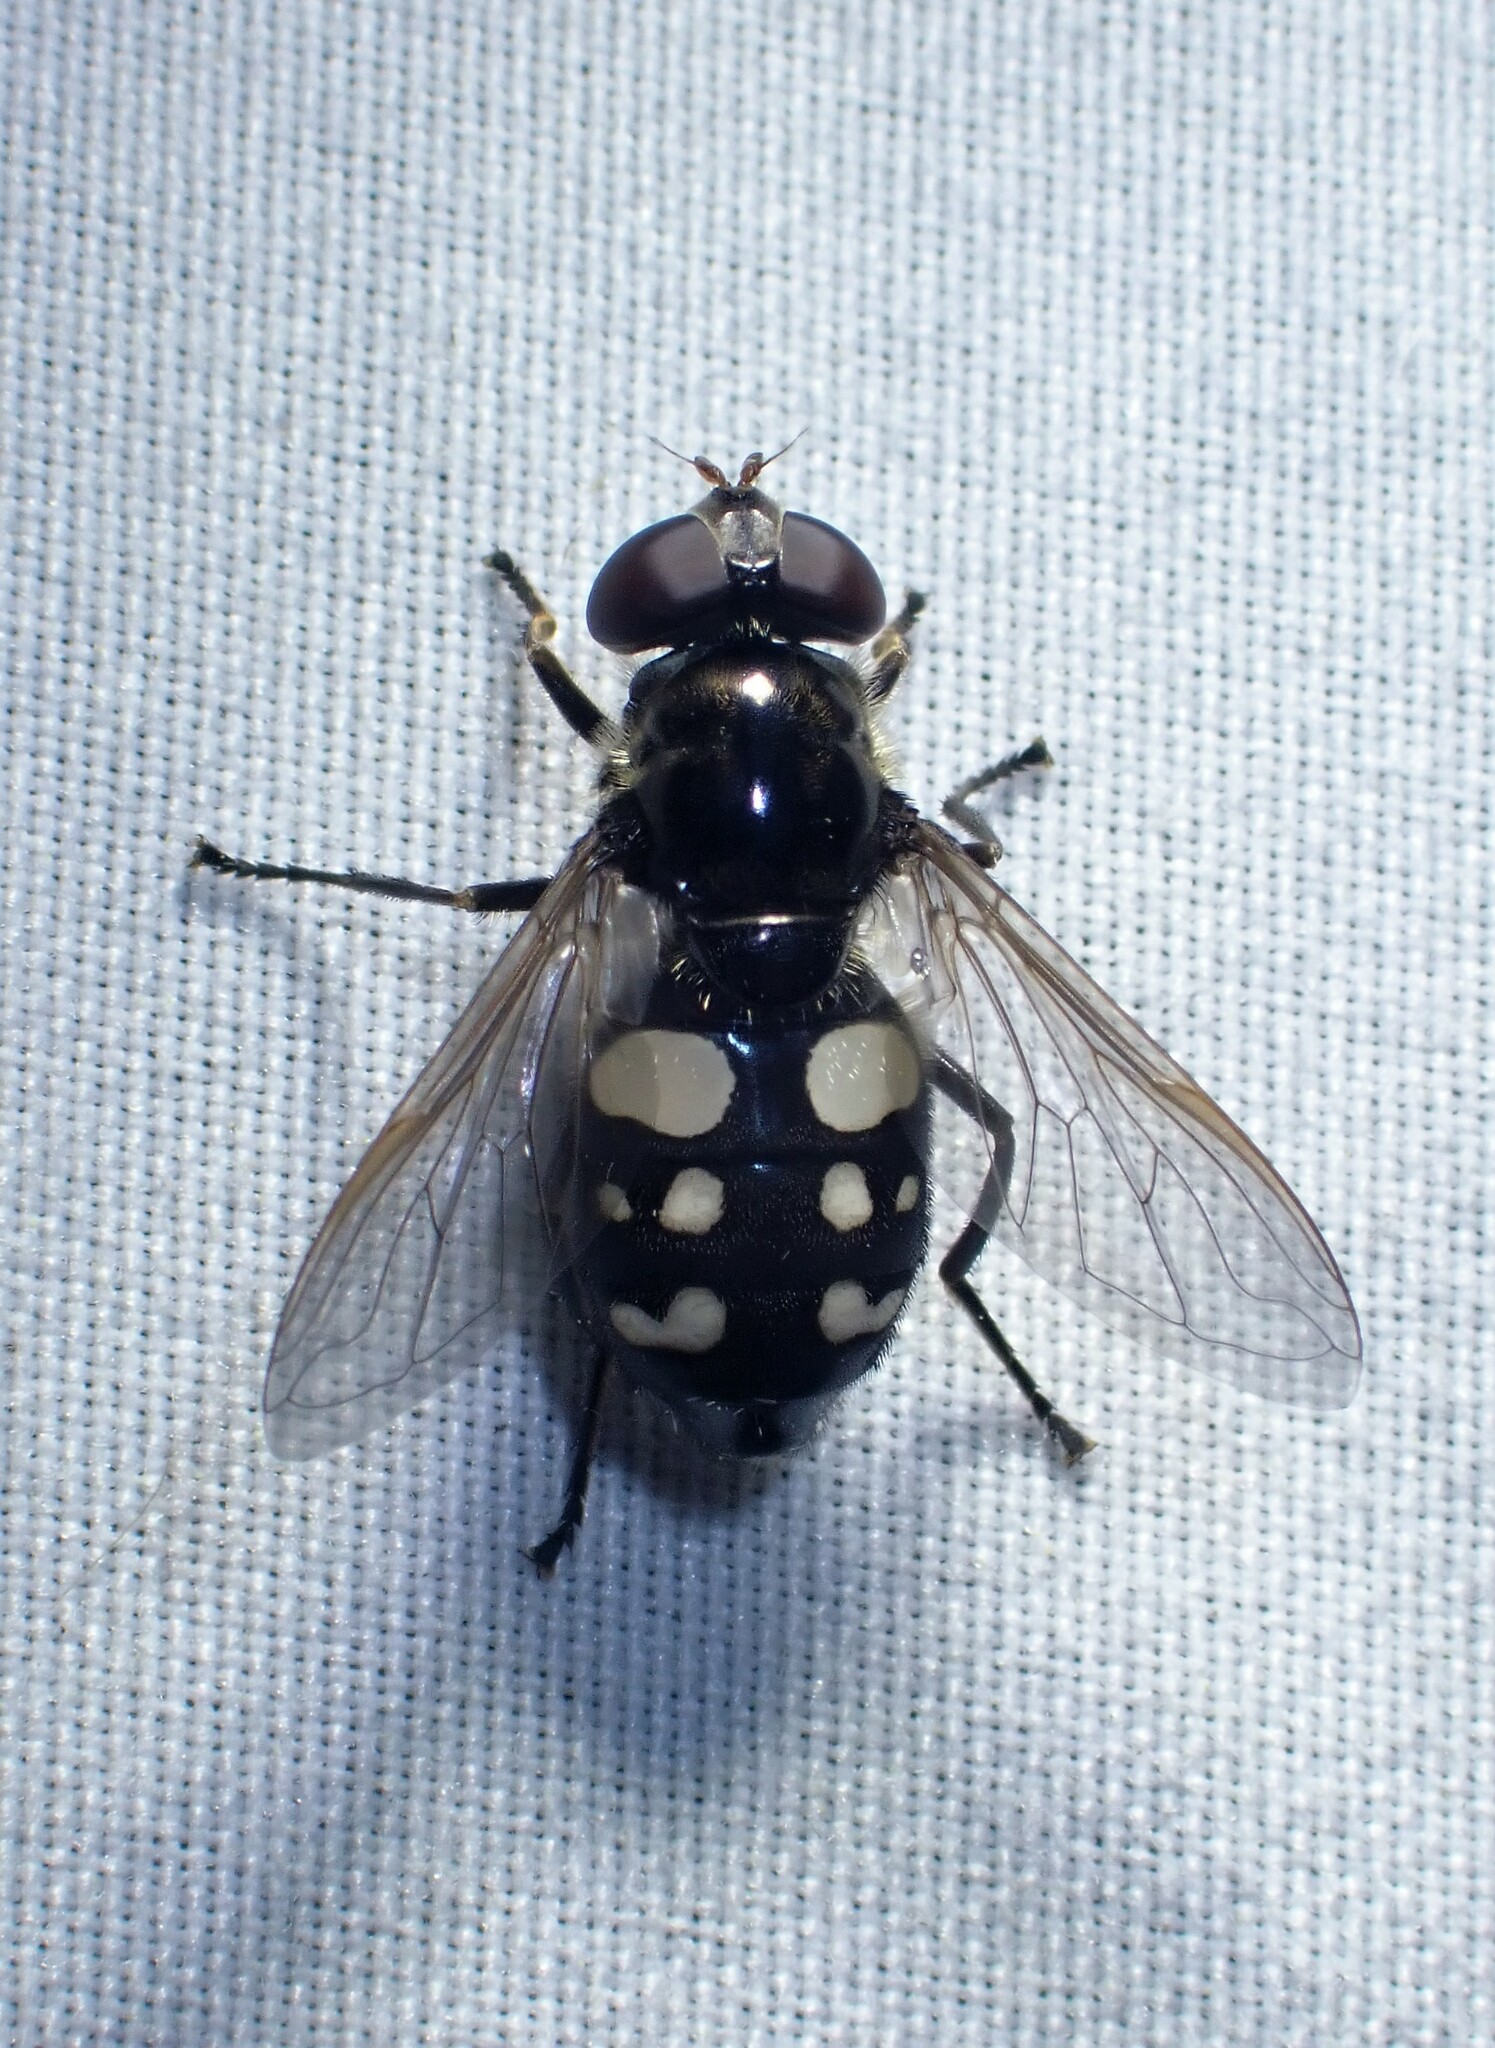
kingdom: Animalia
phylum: Arthropoda
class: Insecta
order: Diptera
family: Syrphidae
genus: Sericomyia
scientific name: Sericomyia lata
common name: White-spotted pond fly
